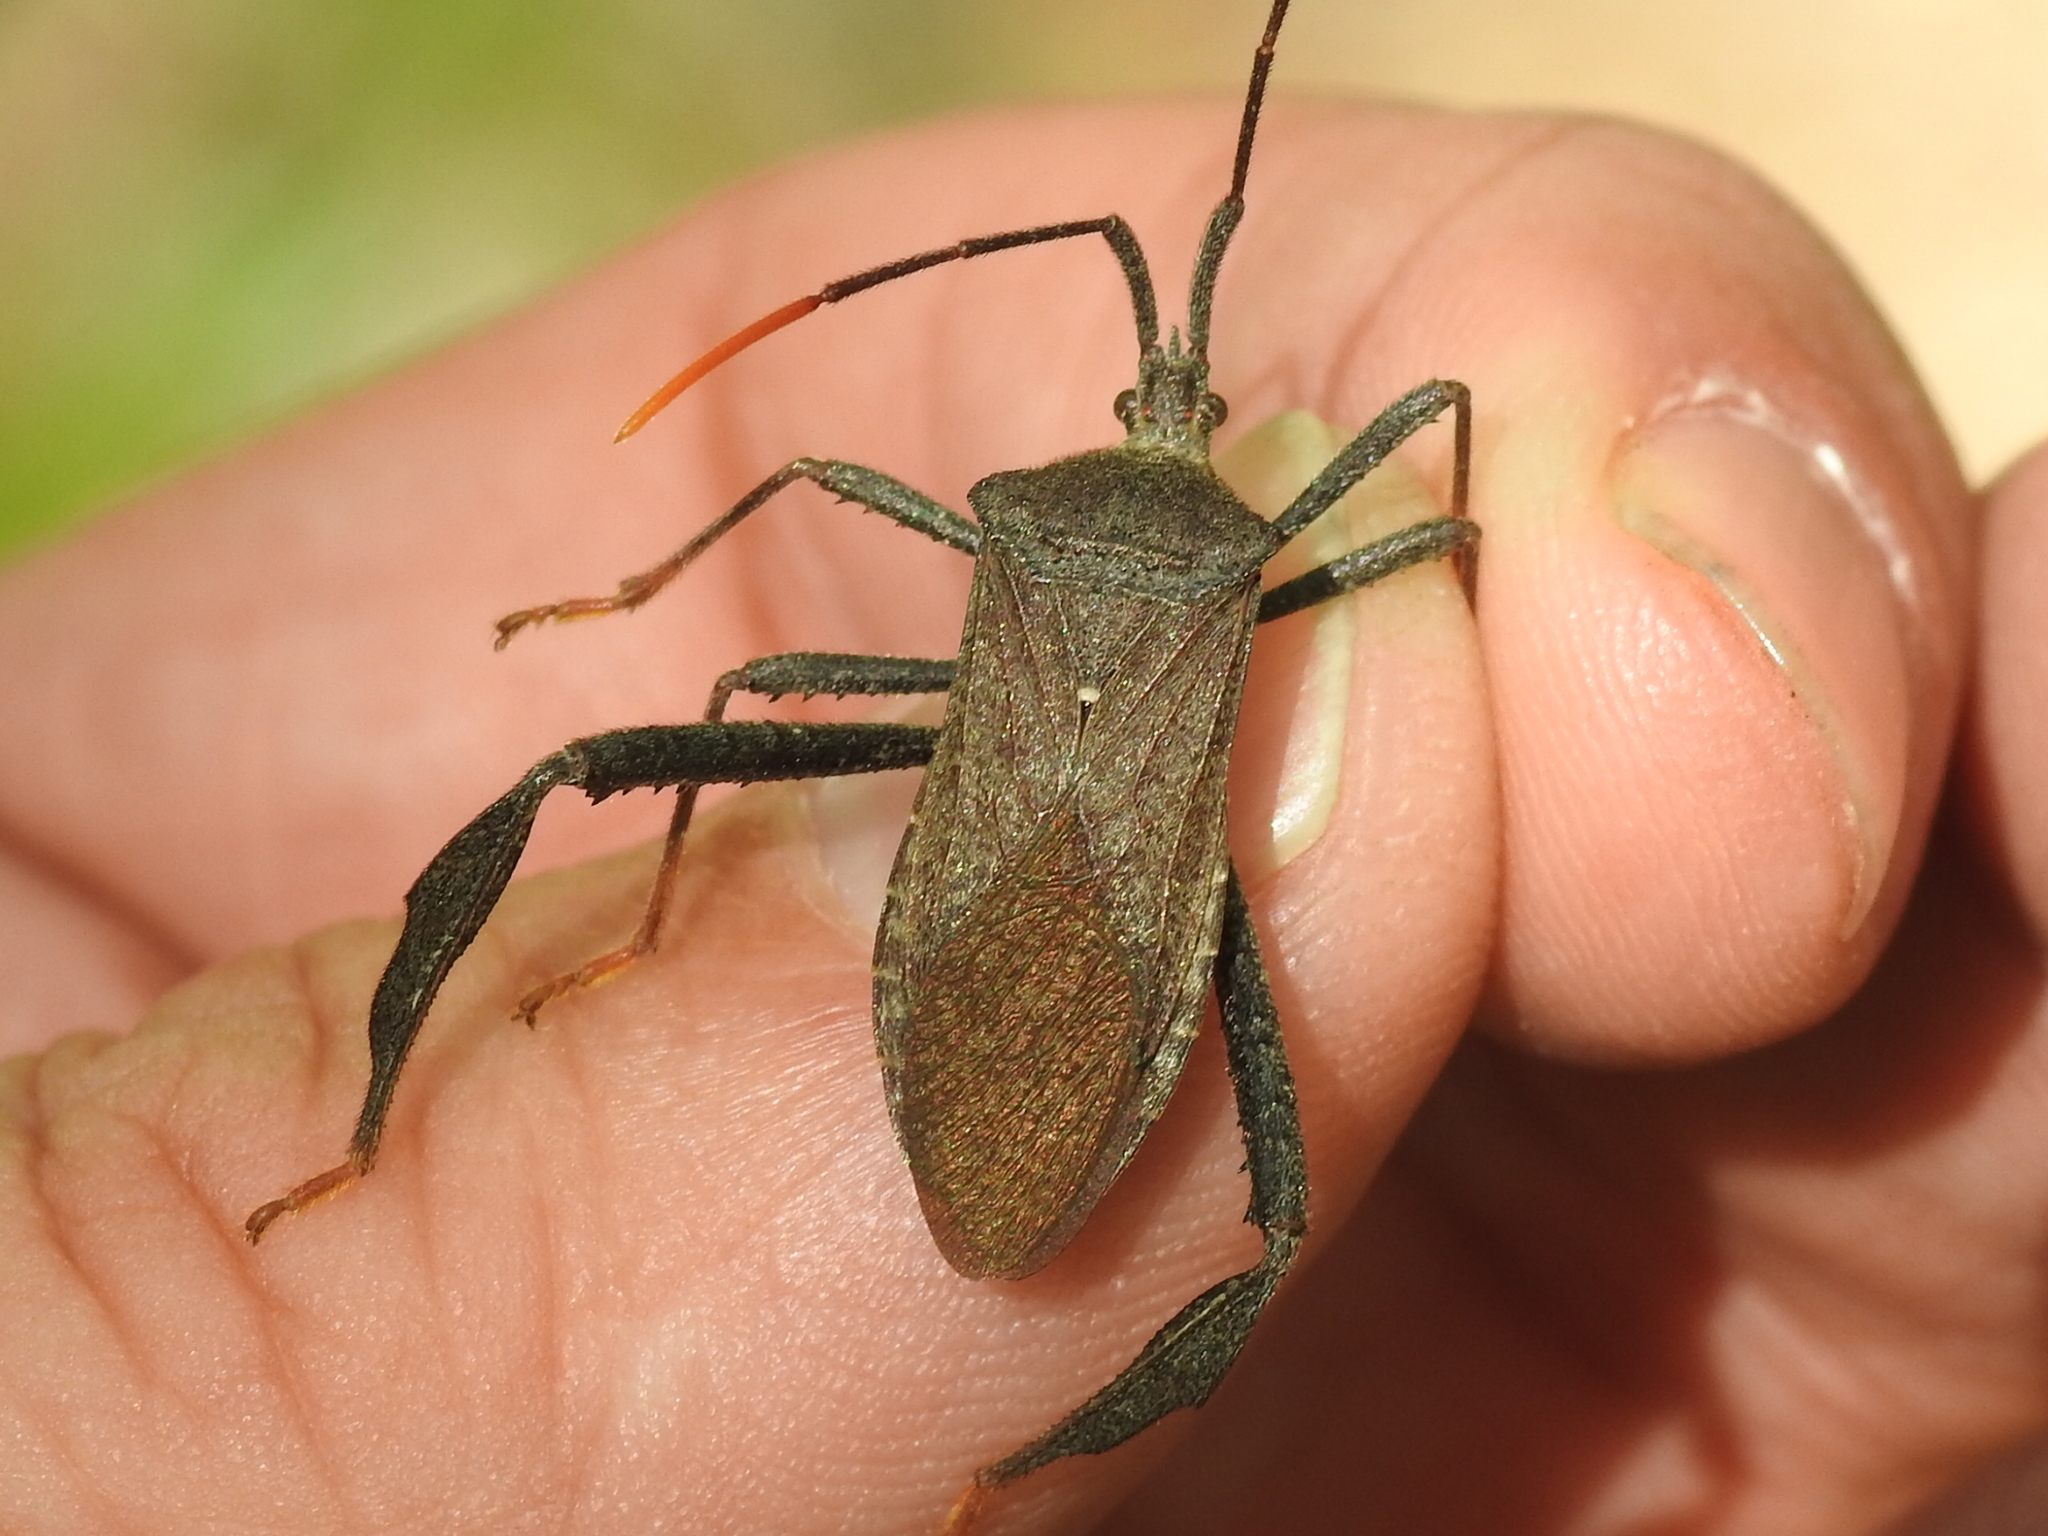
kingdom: Animalia
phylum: Arthropoda
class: Insecta
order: Hemiptera
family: Coreidae
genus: Acanthocephala
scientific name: Acanthocephala terminalis
